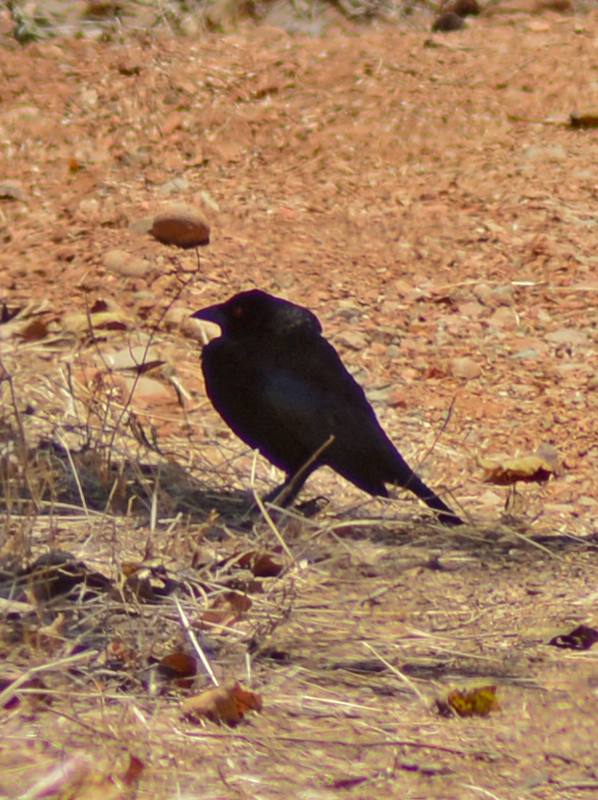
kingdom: Animalia
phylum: Chordata
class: Aves
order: Passeriformes
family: Icteridae
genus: Molothrus
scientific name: Molothrus aeneus
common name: Bronzed cowbird
